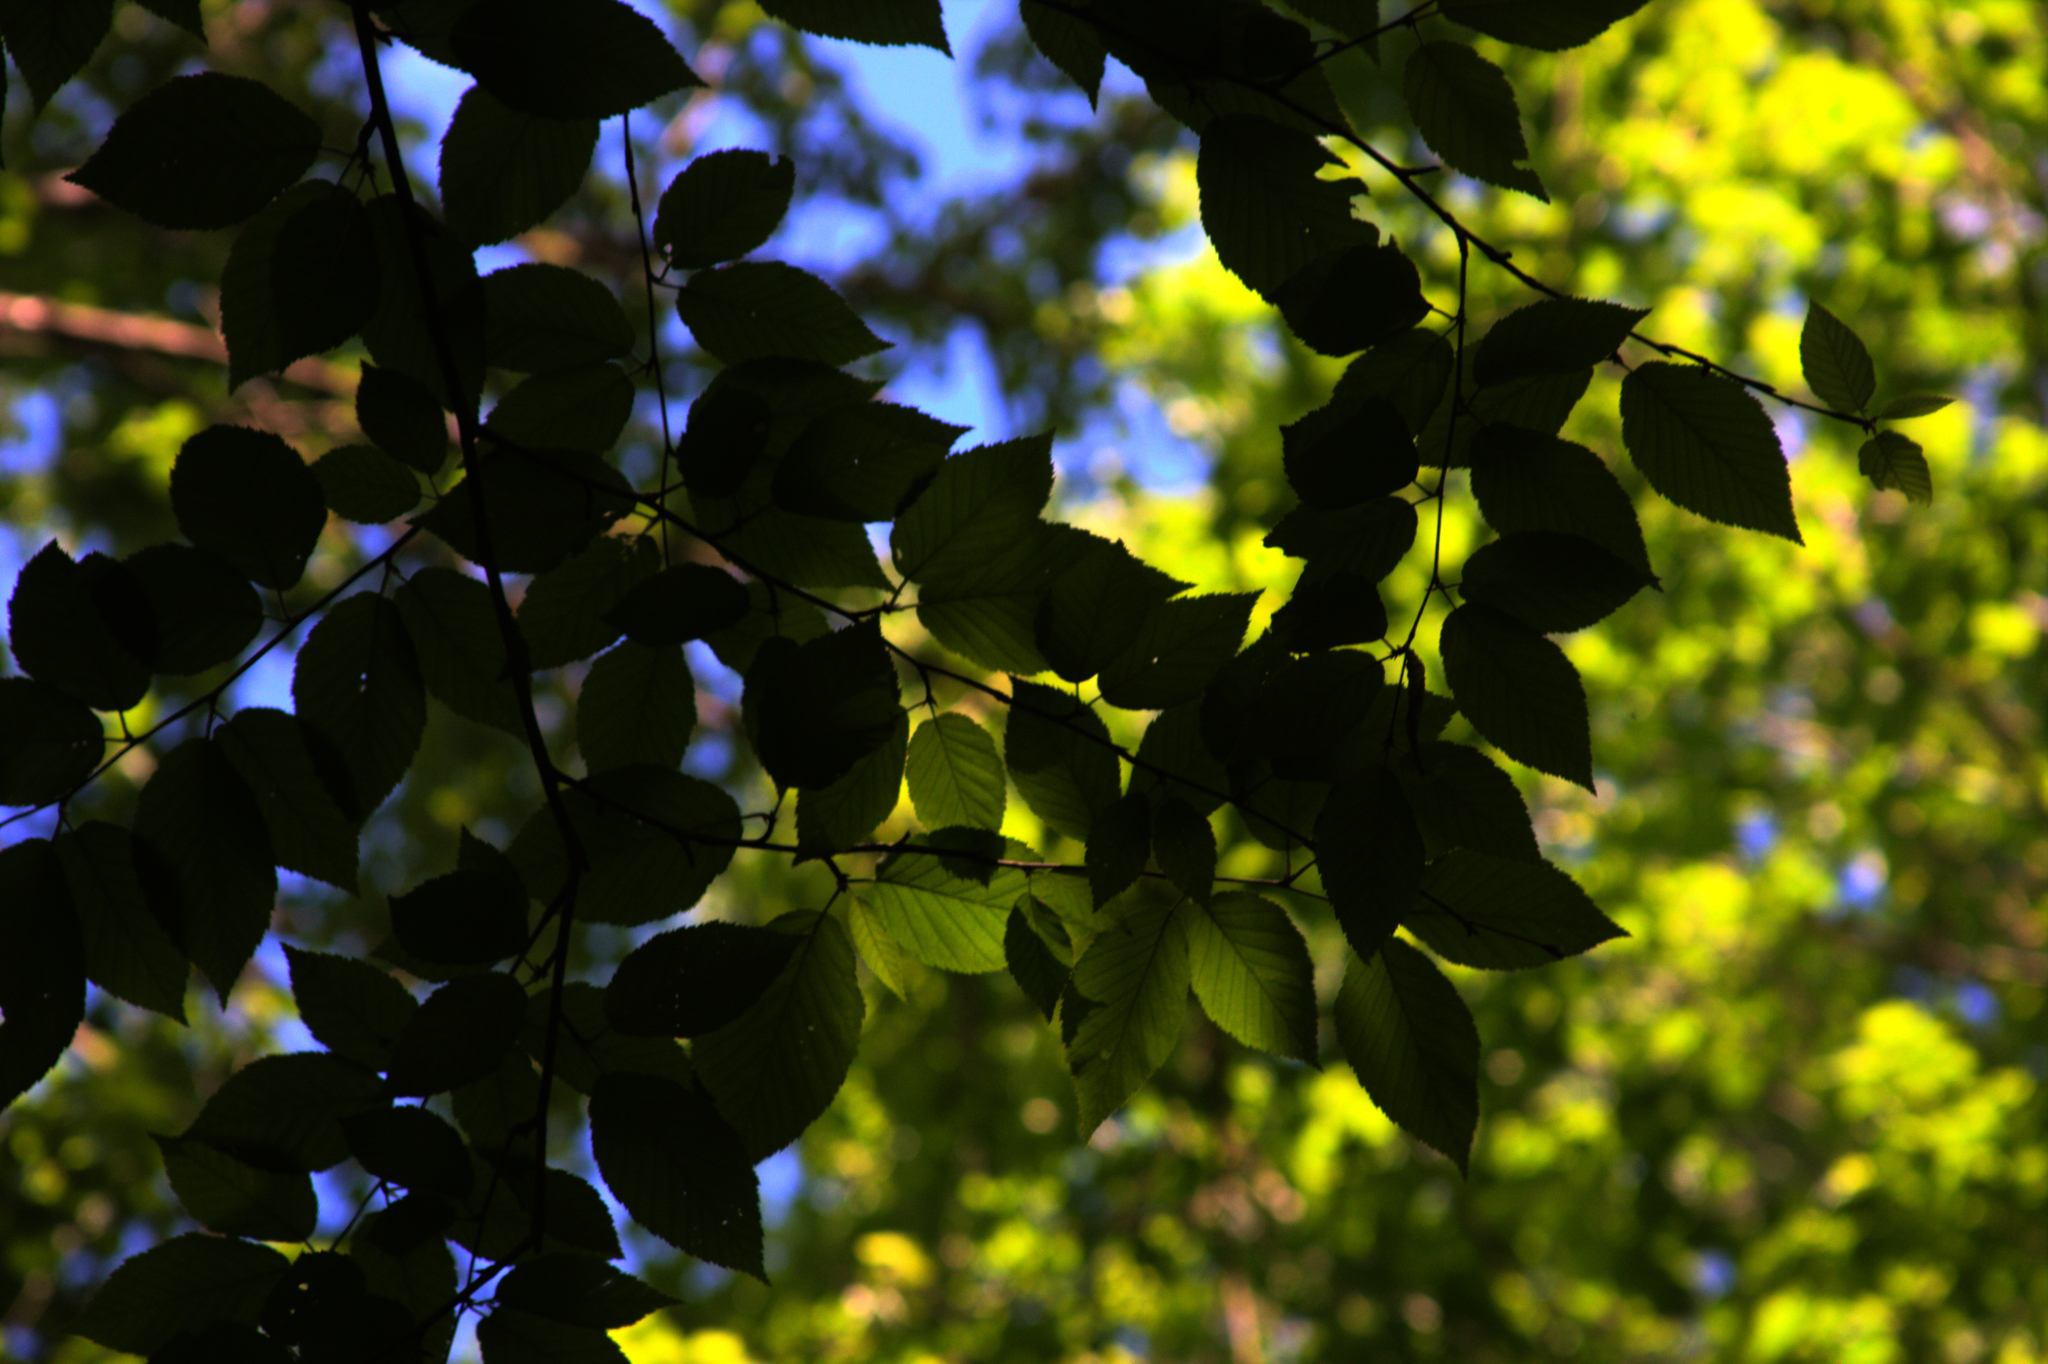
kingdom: Plantae
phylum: Tracheophyta
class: Magnoliopsida
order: Fagales
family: Betulaceae
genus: Betula
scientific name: Betula alleghaniensis
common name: Yellow birch
